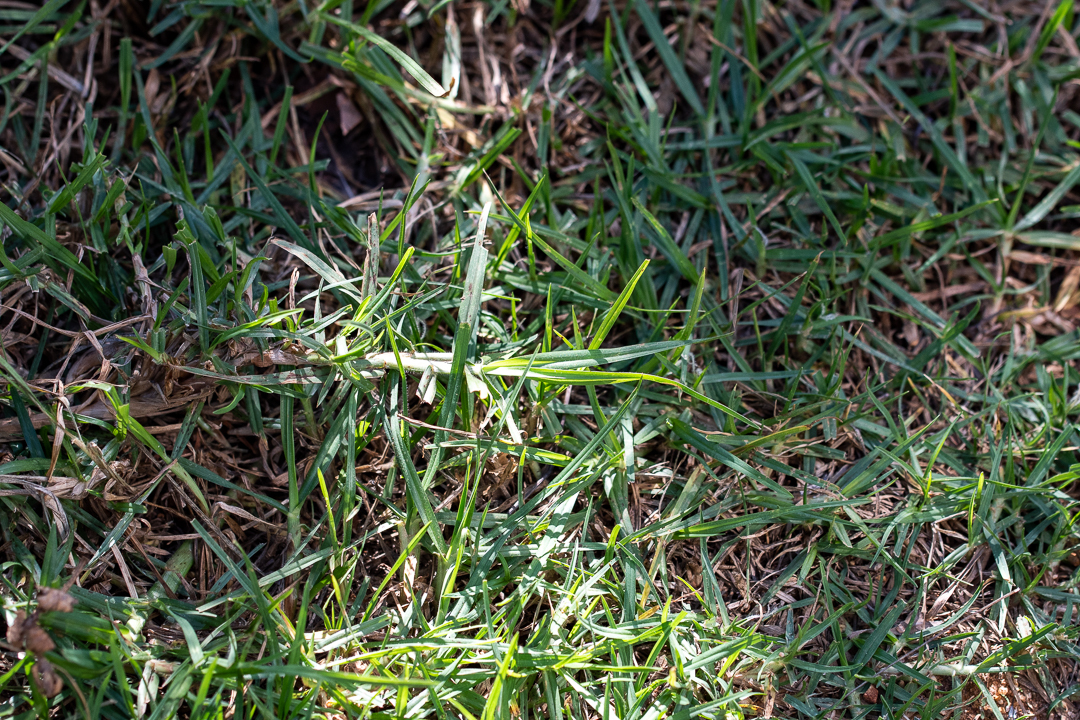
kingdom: Plantae
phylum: Tracheophyta
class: Liliopsida
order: Poales
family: Poaceae
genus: Cenchrus
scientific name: Cenchrus clandestinus
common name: Kikuyugrass
